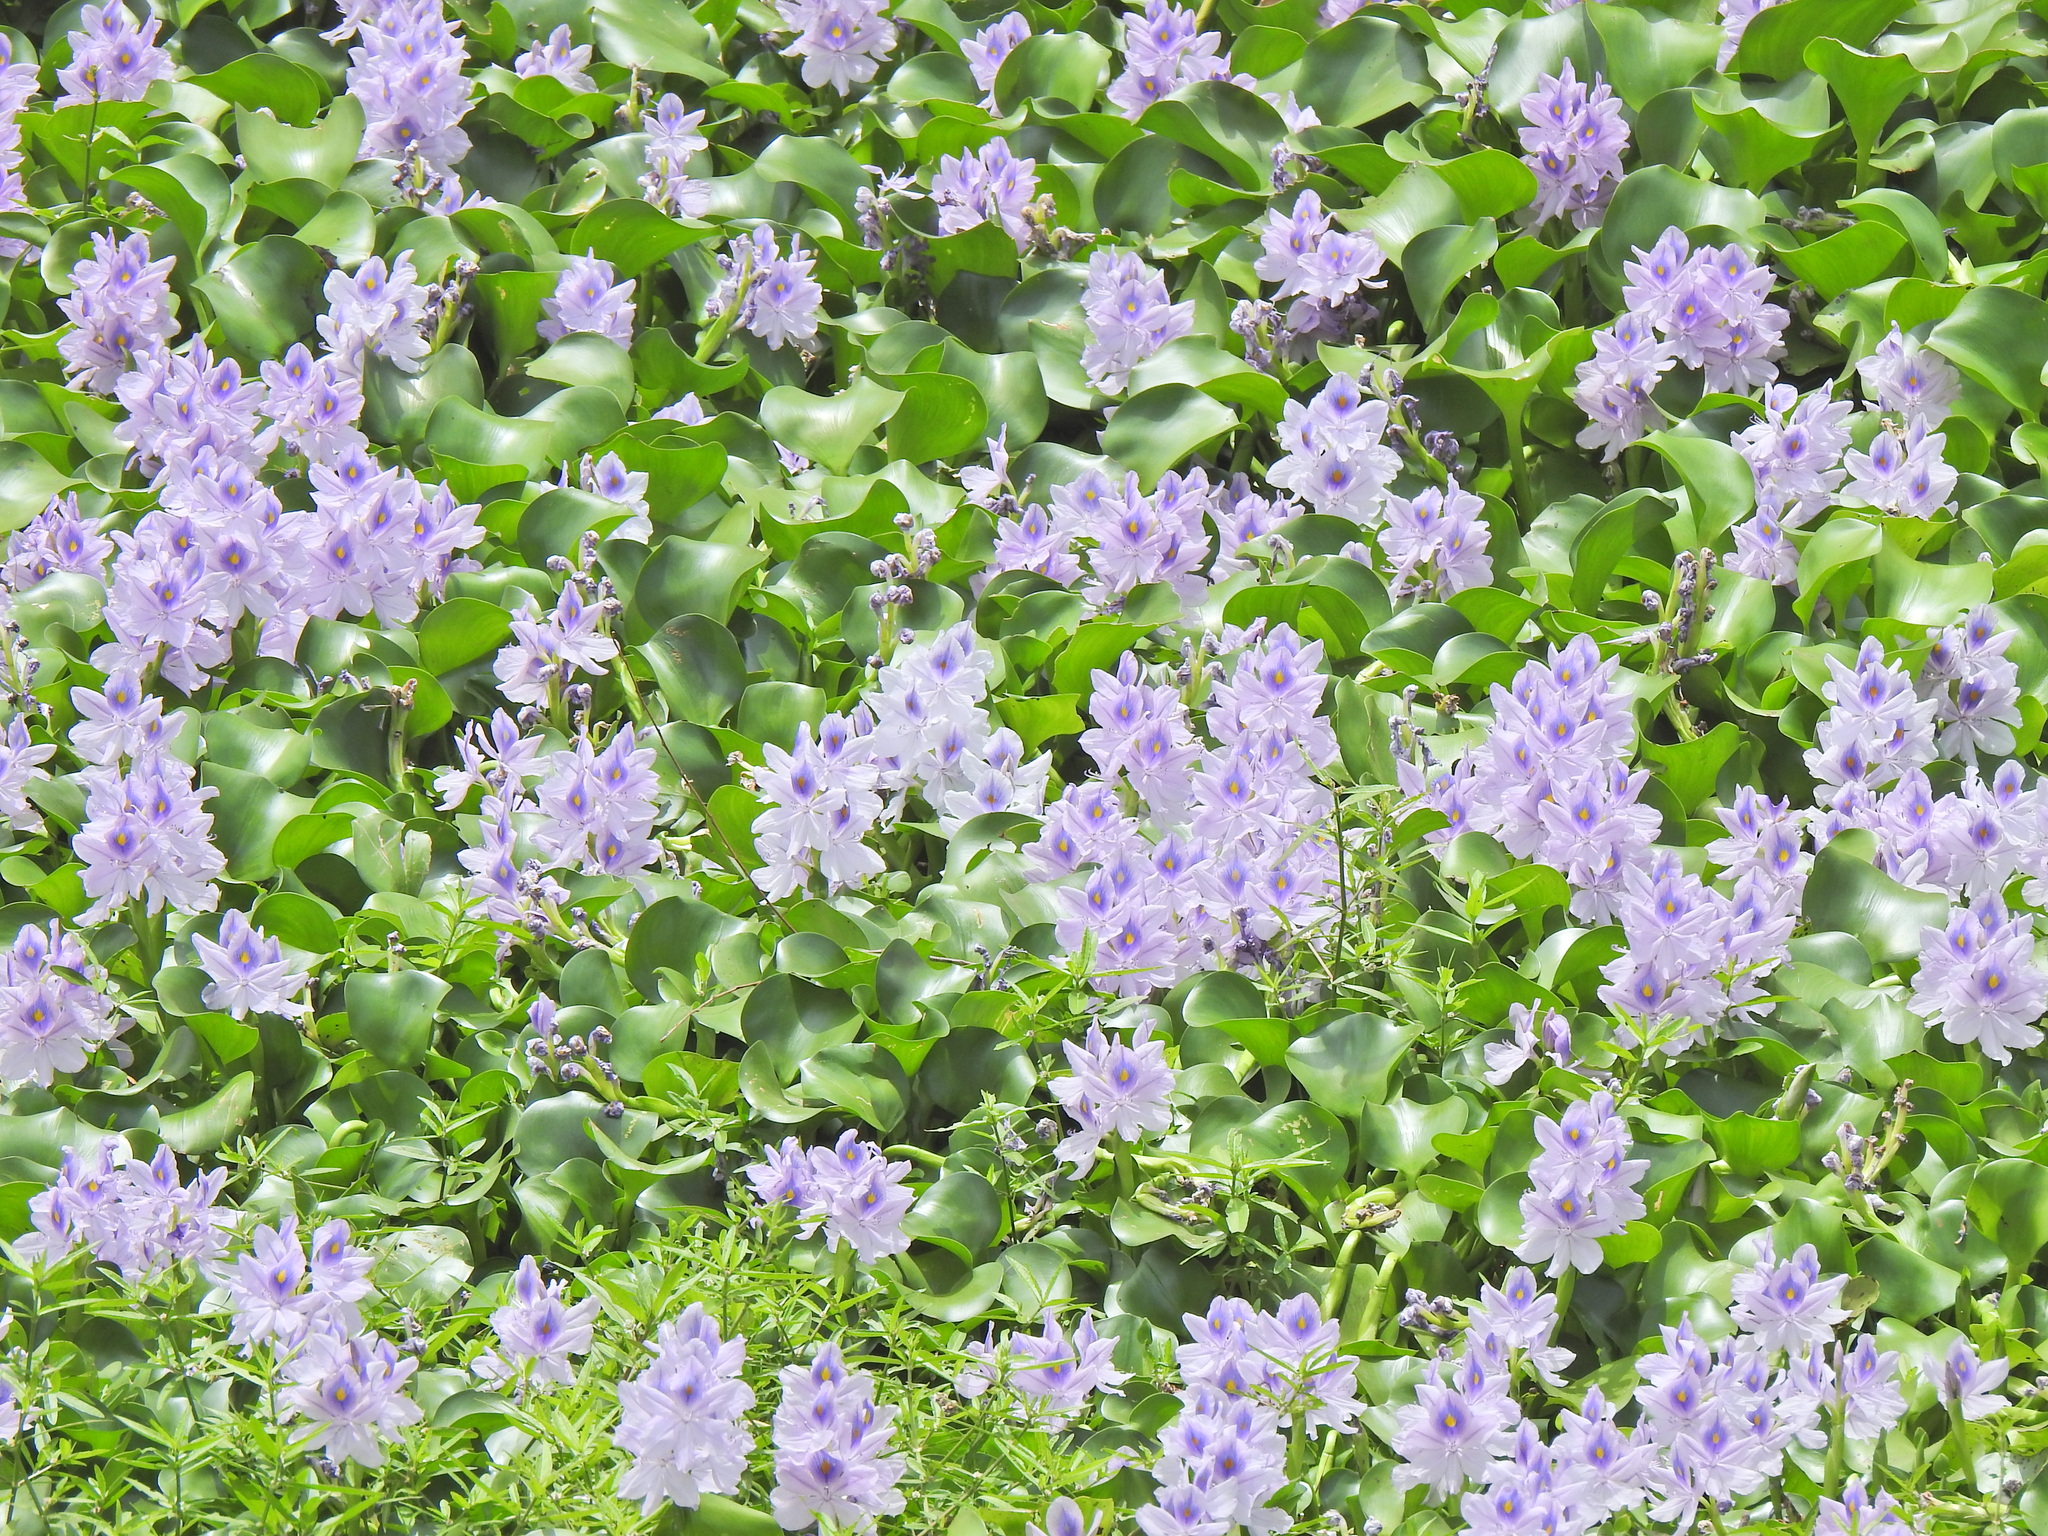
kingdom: Plantae
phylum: Tracheophyta
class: Liliopsida
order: Commelinales
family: Pontederiaceae
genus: Pontederia
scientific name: Pontederia crassipes
